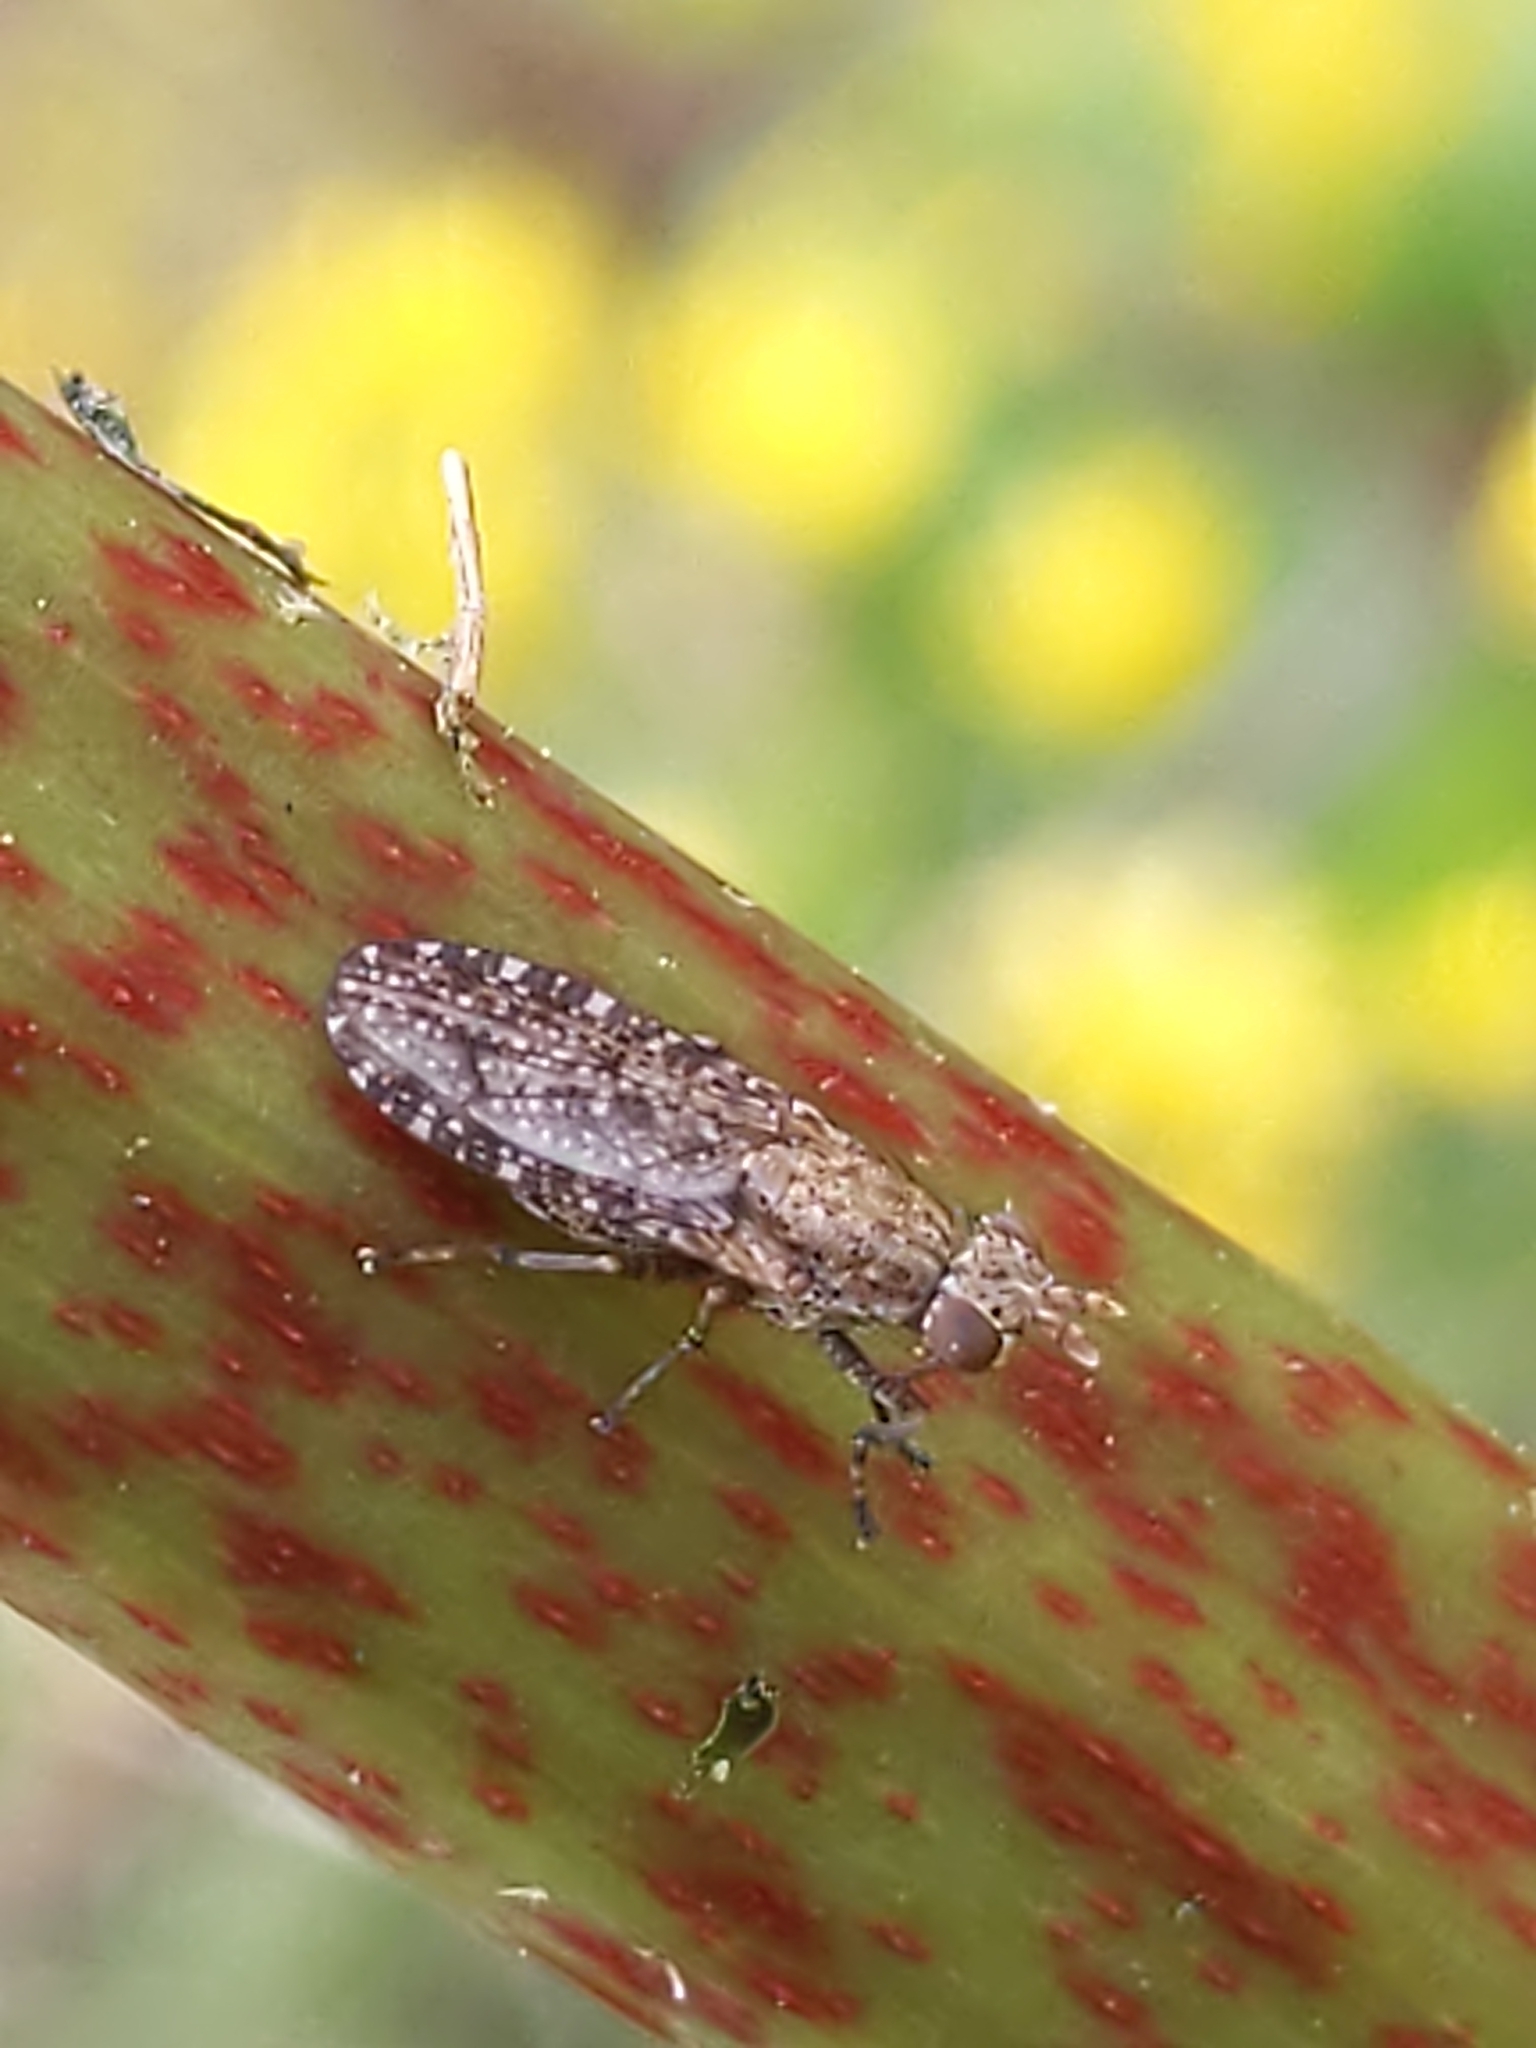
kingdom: Animalia
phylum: Arthropoda
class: Insecta
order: Diptera
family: Sciomyzidae
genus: Dictya
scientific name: Dictya
